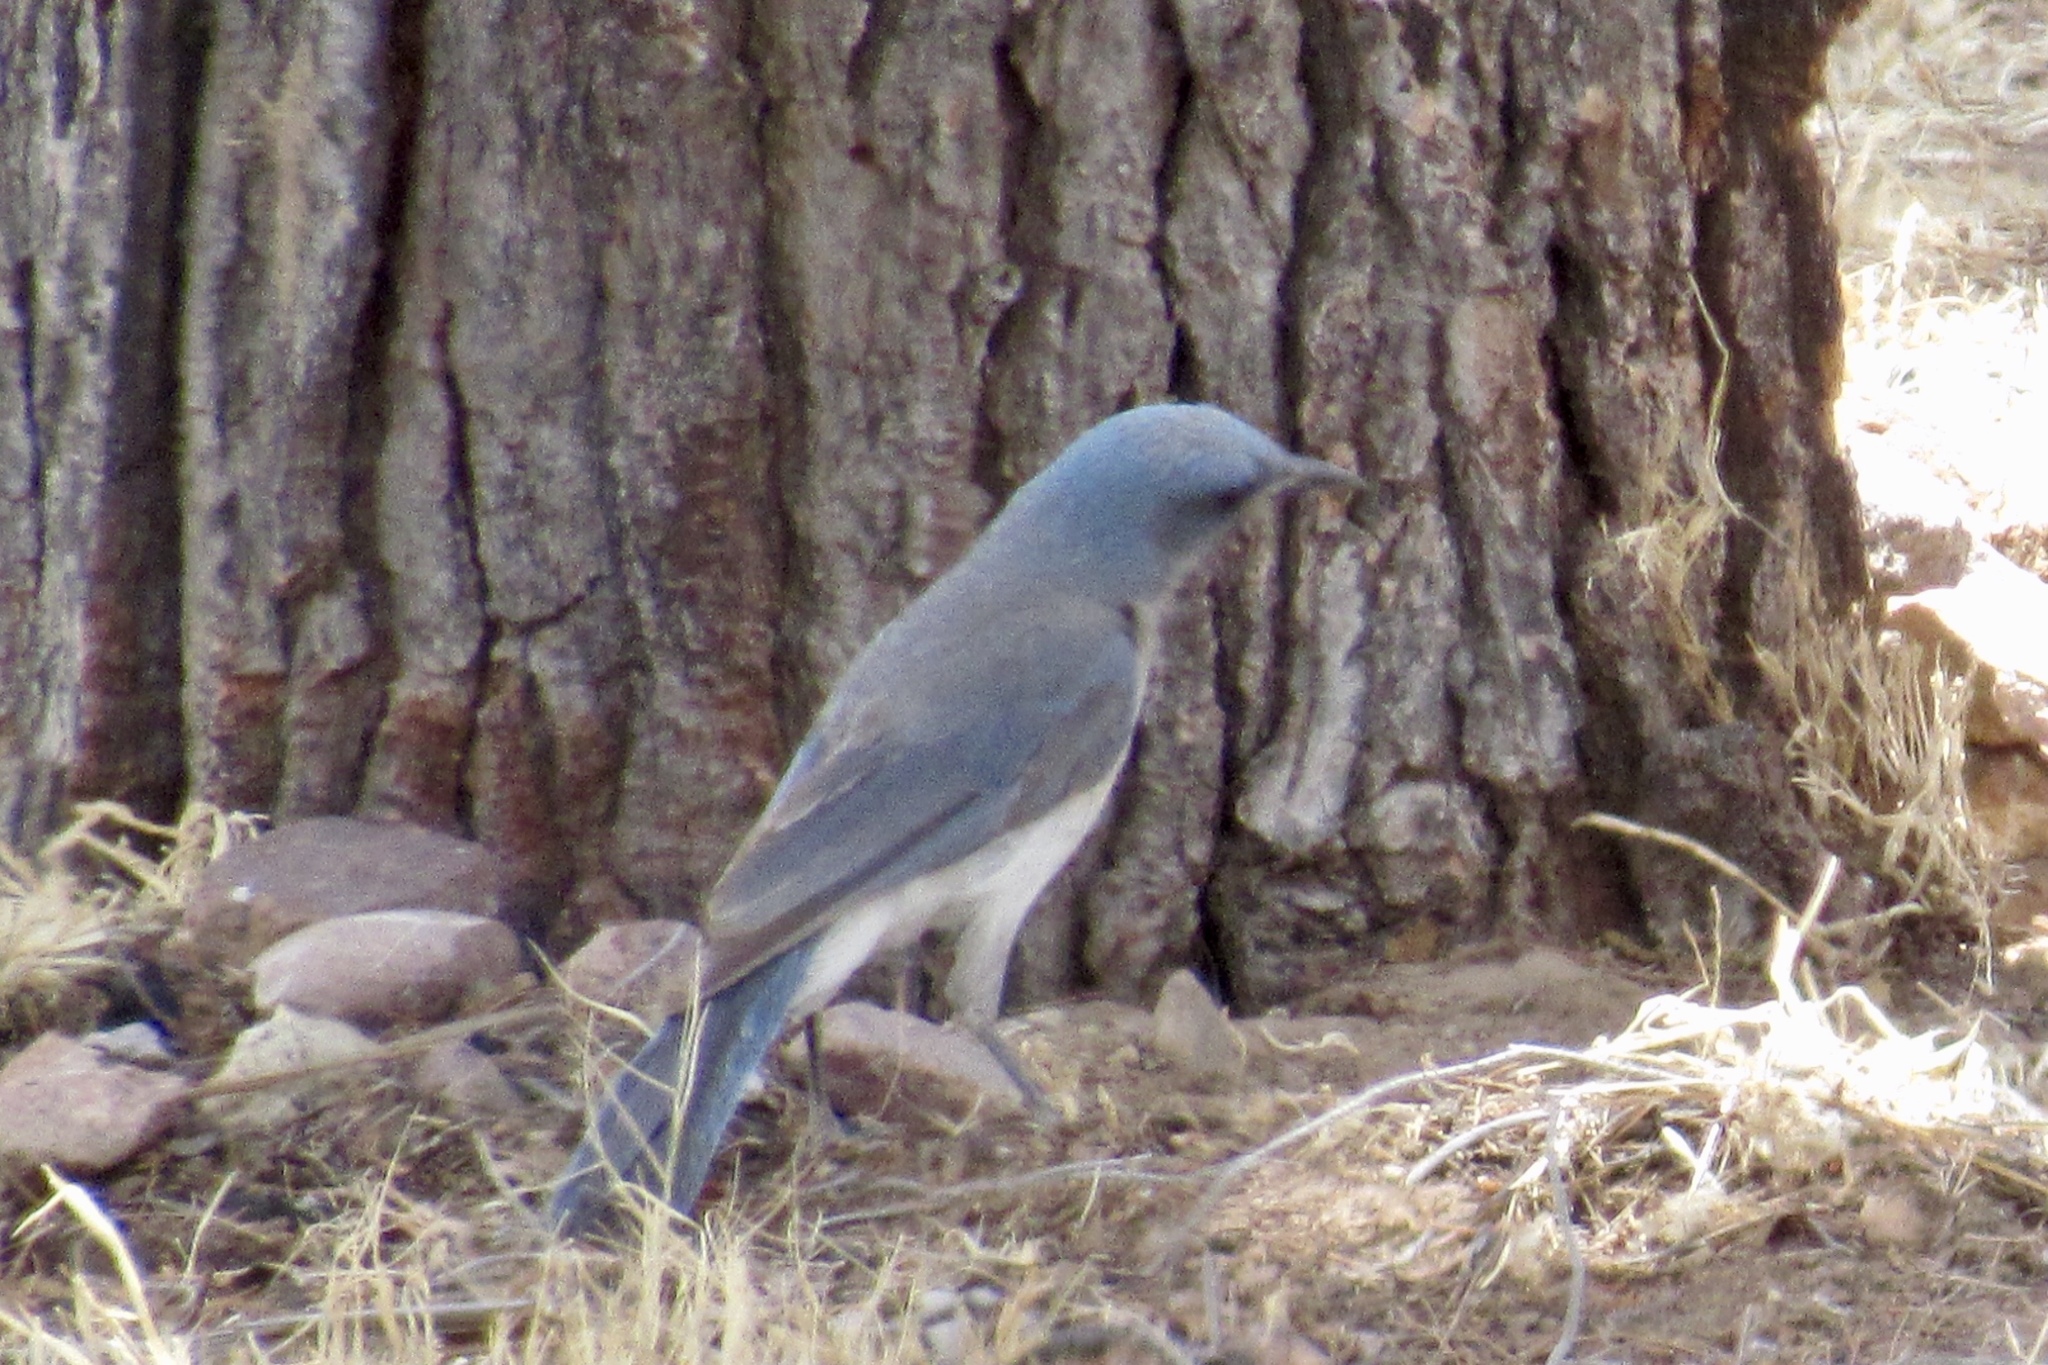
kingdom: Animalia
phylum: Chordata
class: Aves
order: Passeriformes
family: Corvidae
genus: Aphelocoma
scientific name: Aphelocoma wollweberi
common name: Mexican jay
